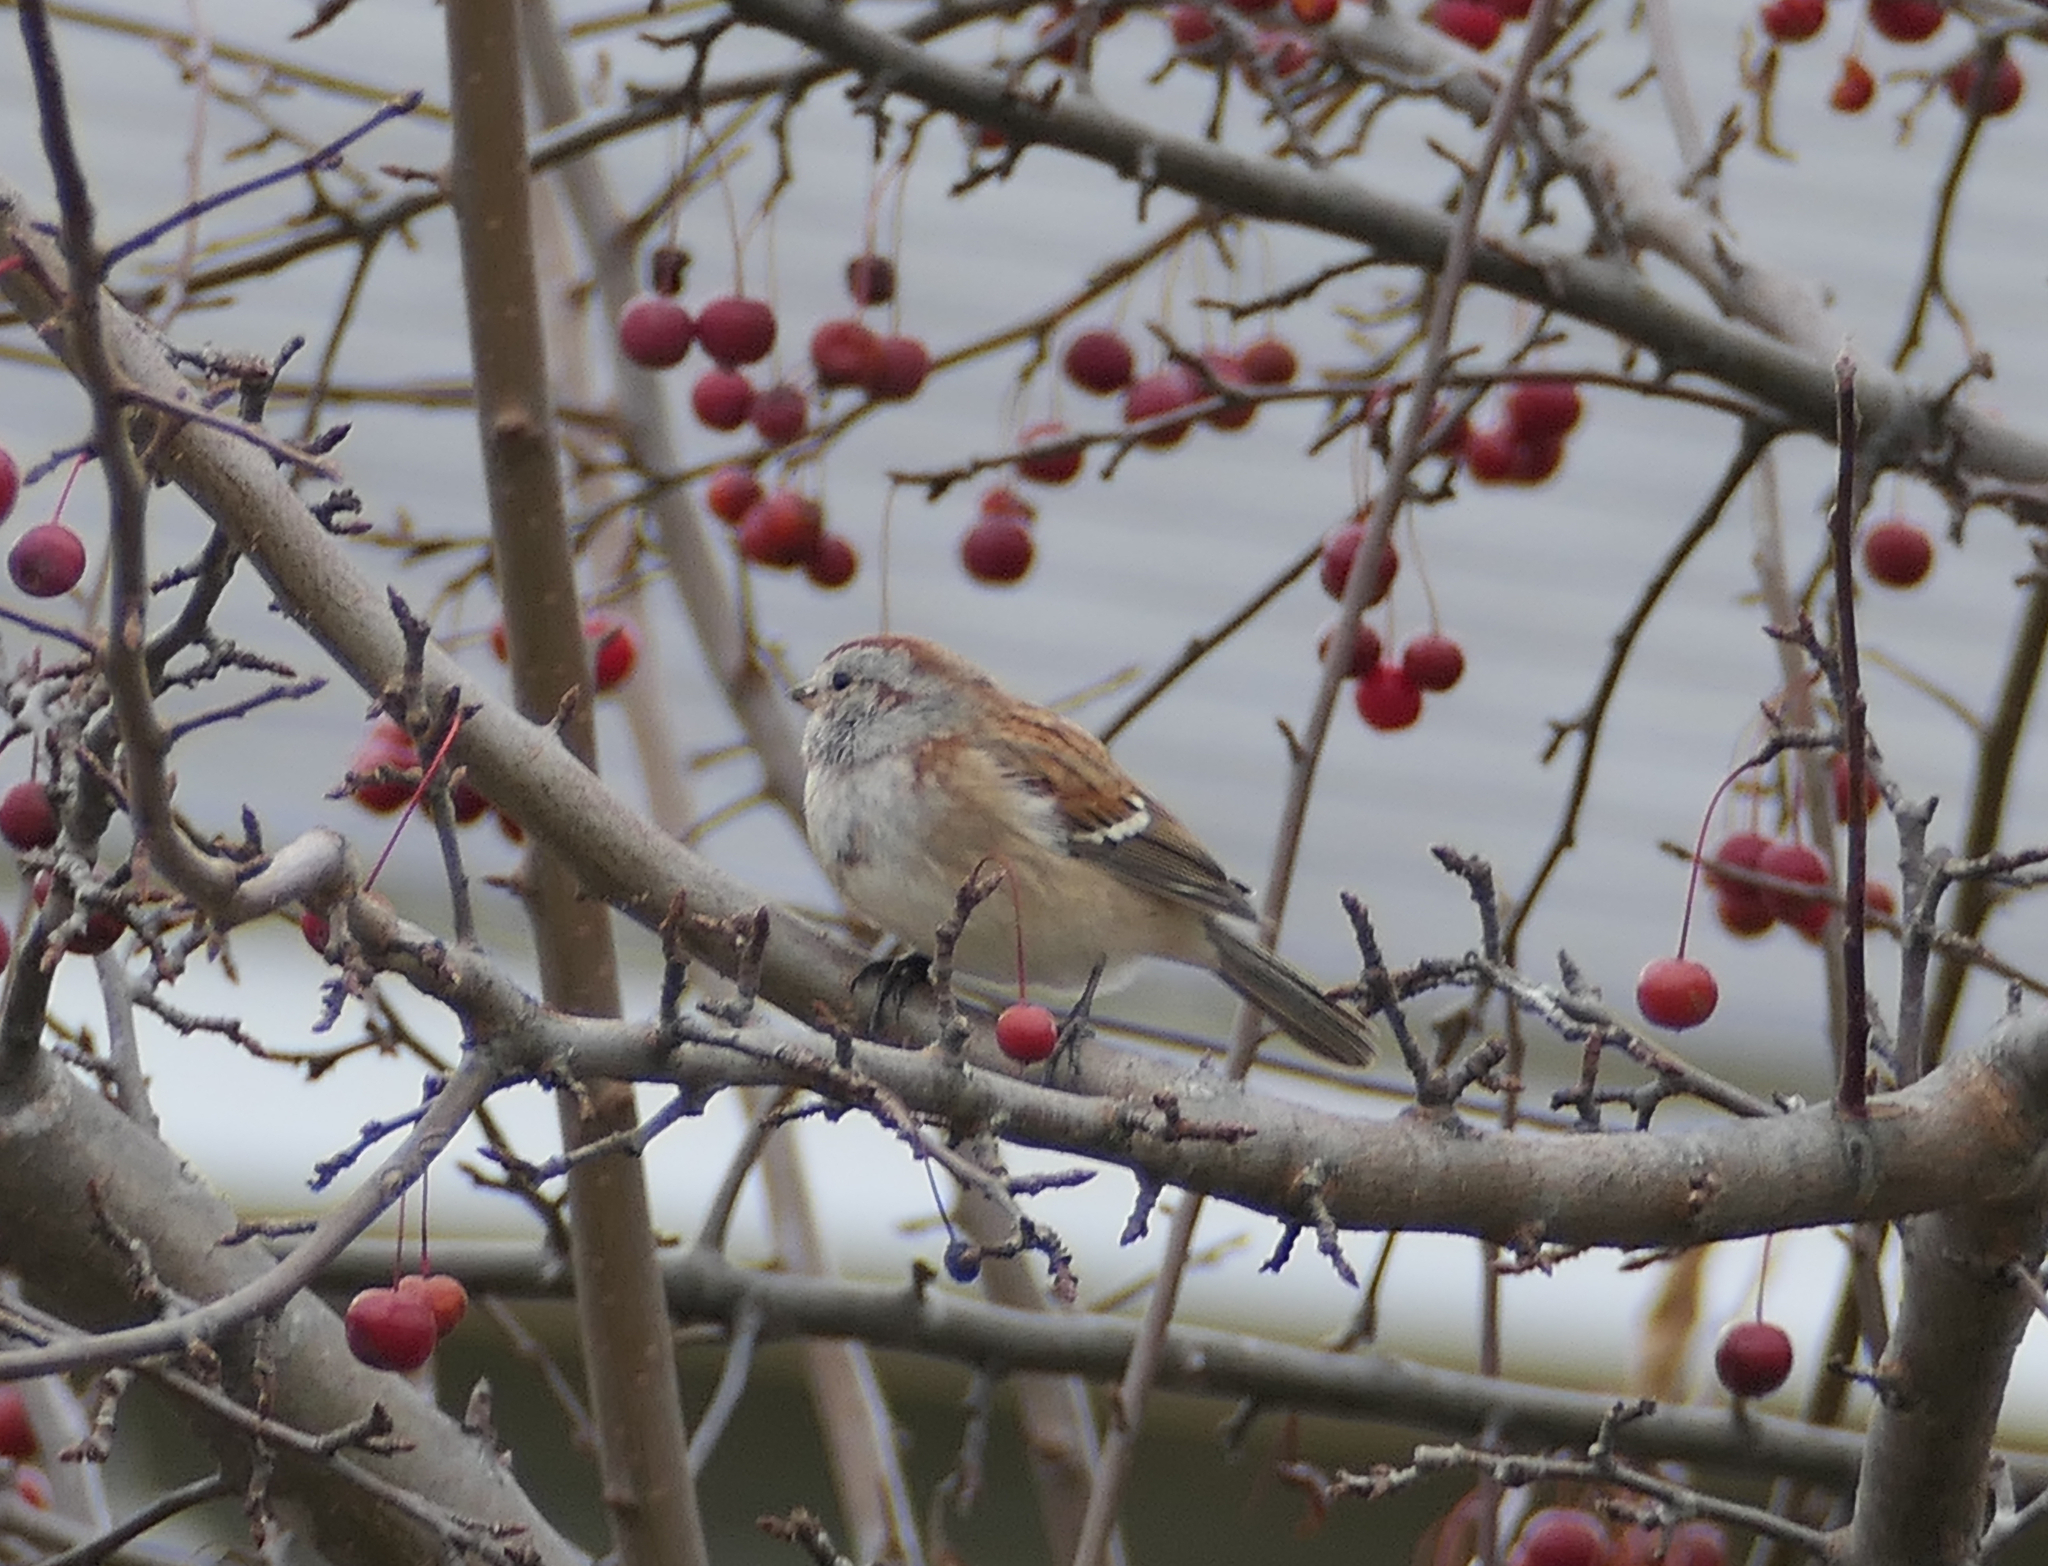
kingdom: Animalia
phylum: Chordata
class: Aves
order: Passeriformes
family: Passerellidae
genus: Spizelloides
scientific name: Spizelloides arborea
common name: American tree sparrow
